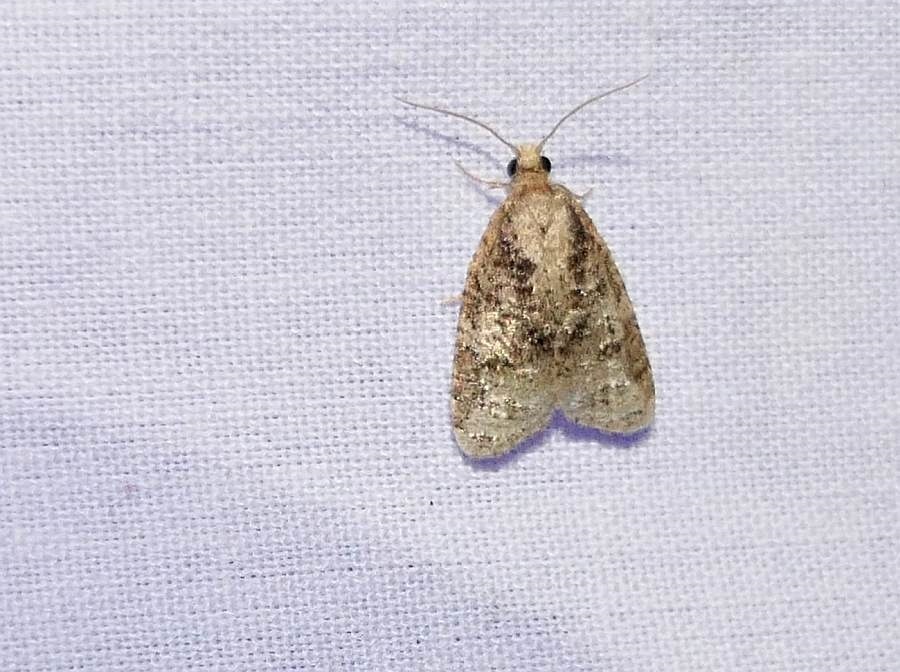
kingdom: Animalia
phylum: Arthropoda
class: Insecta
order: Lepidoptera
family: Tortricidae
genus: Platynota
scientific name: Platynota exasperatana
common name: Exasperating platynota moth
